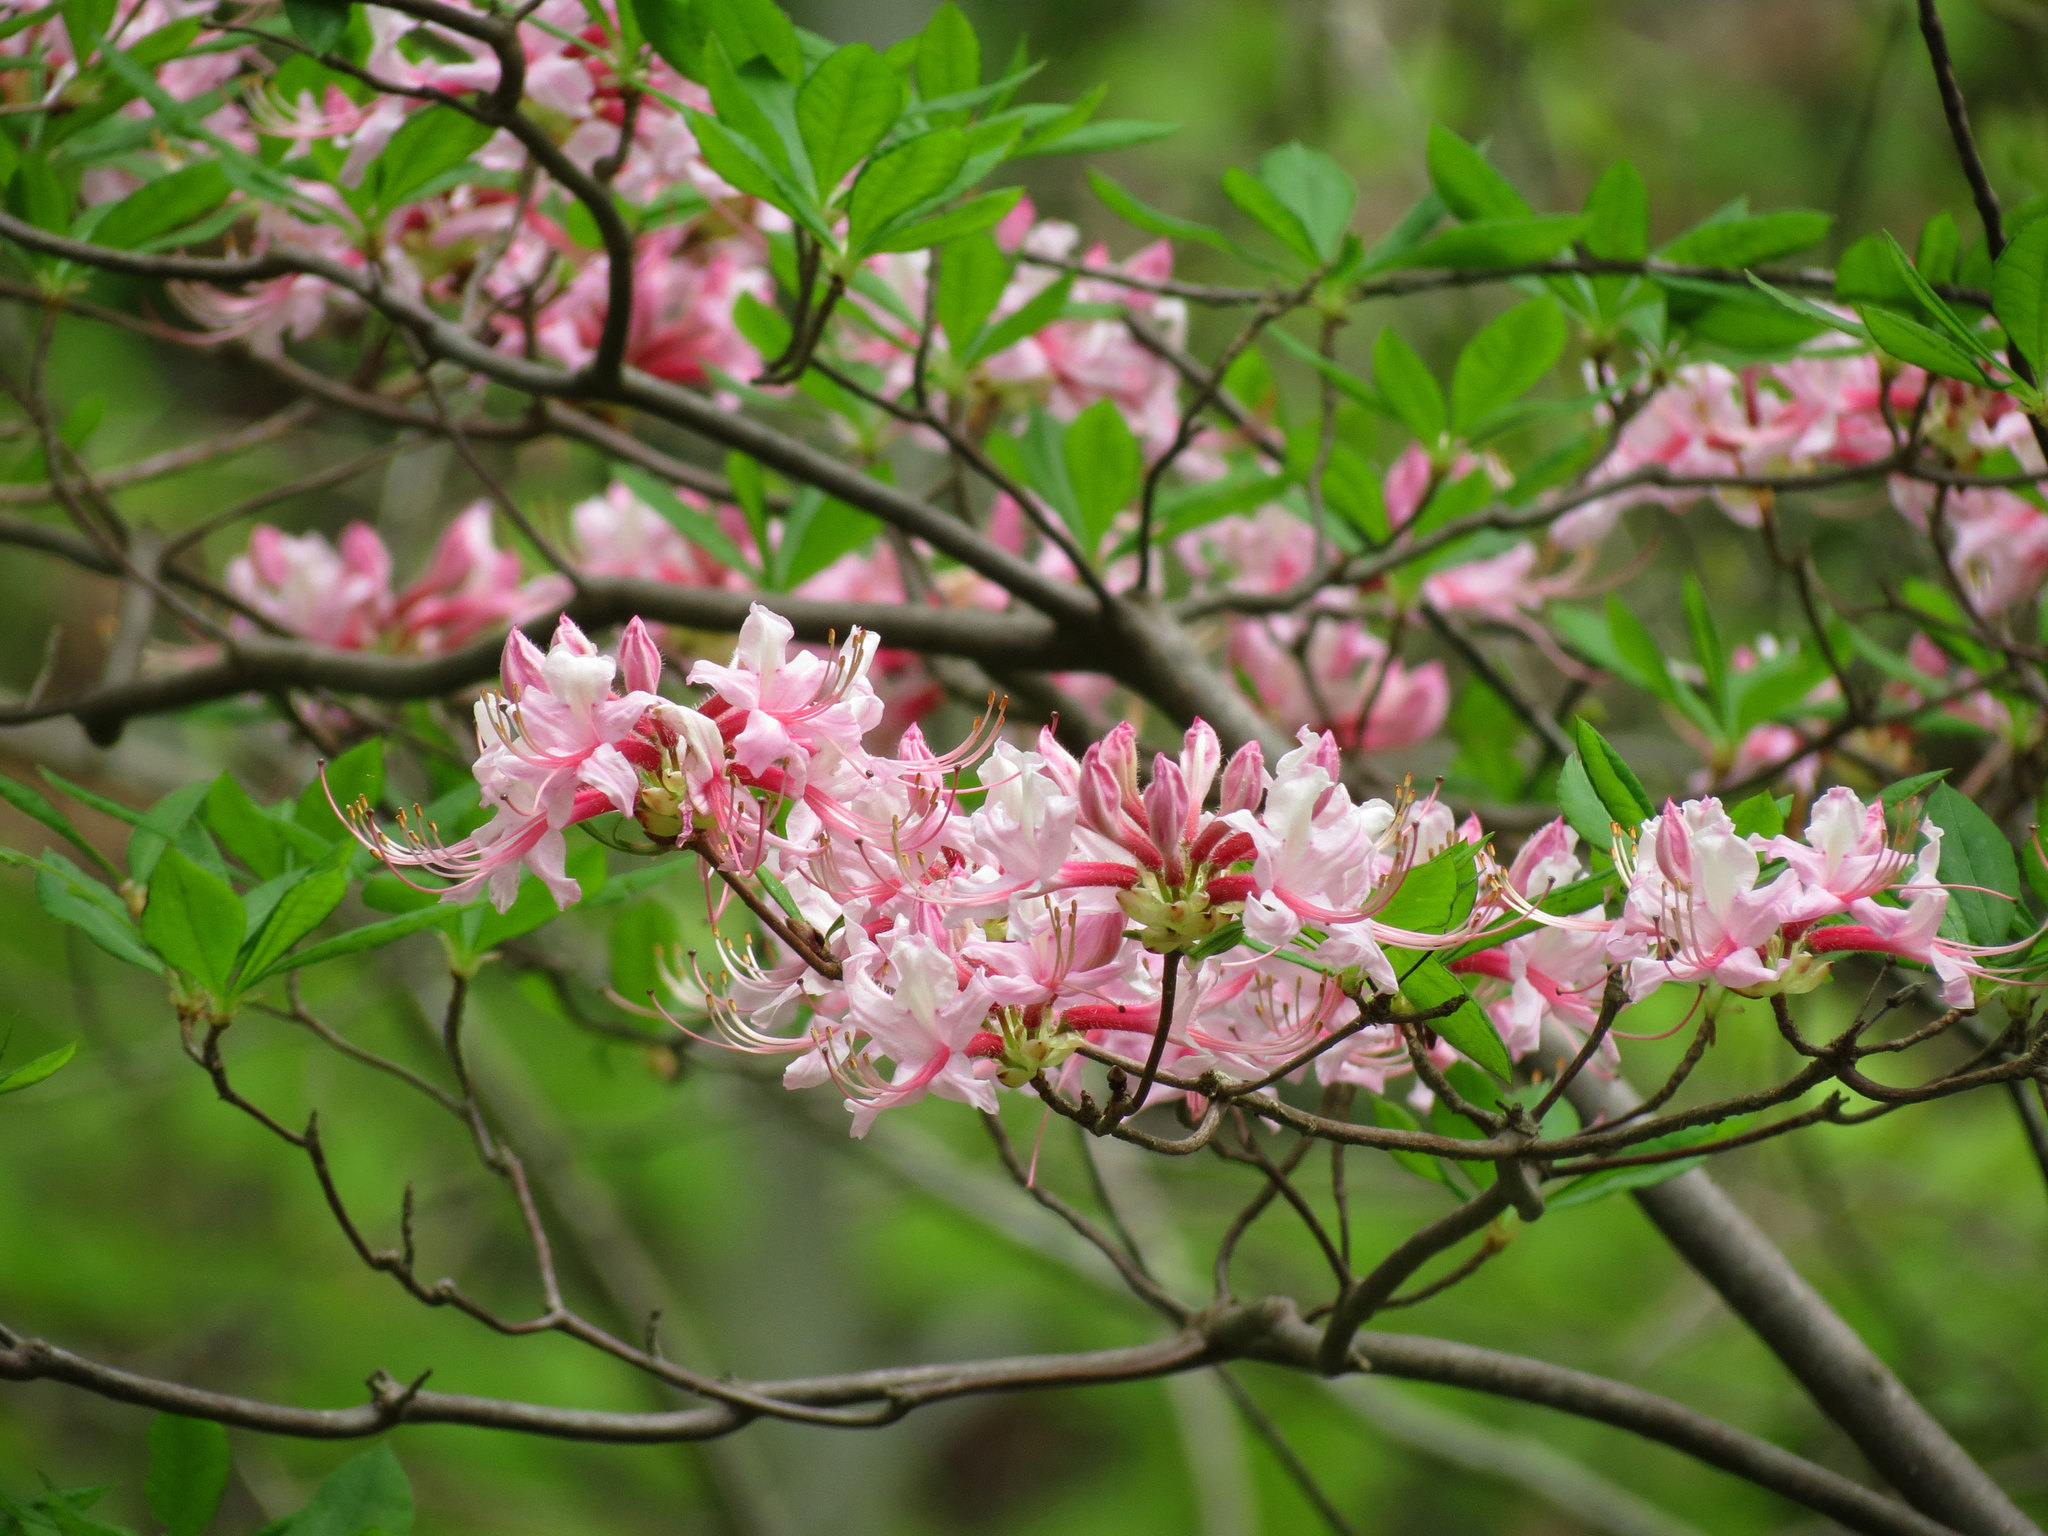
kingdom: Plantae
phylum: Tracheophyta
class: Magnoliopsida
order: Ericales
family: Ericaceae
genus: Rhododendron
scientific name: Rhododendron periclymenoides
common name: Election-pink
